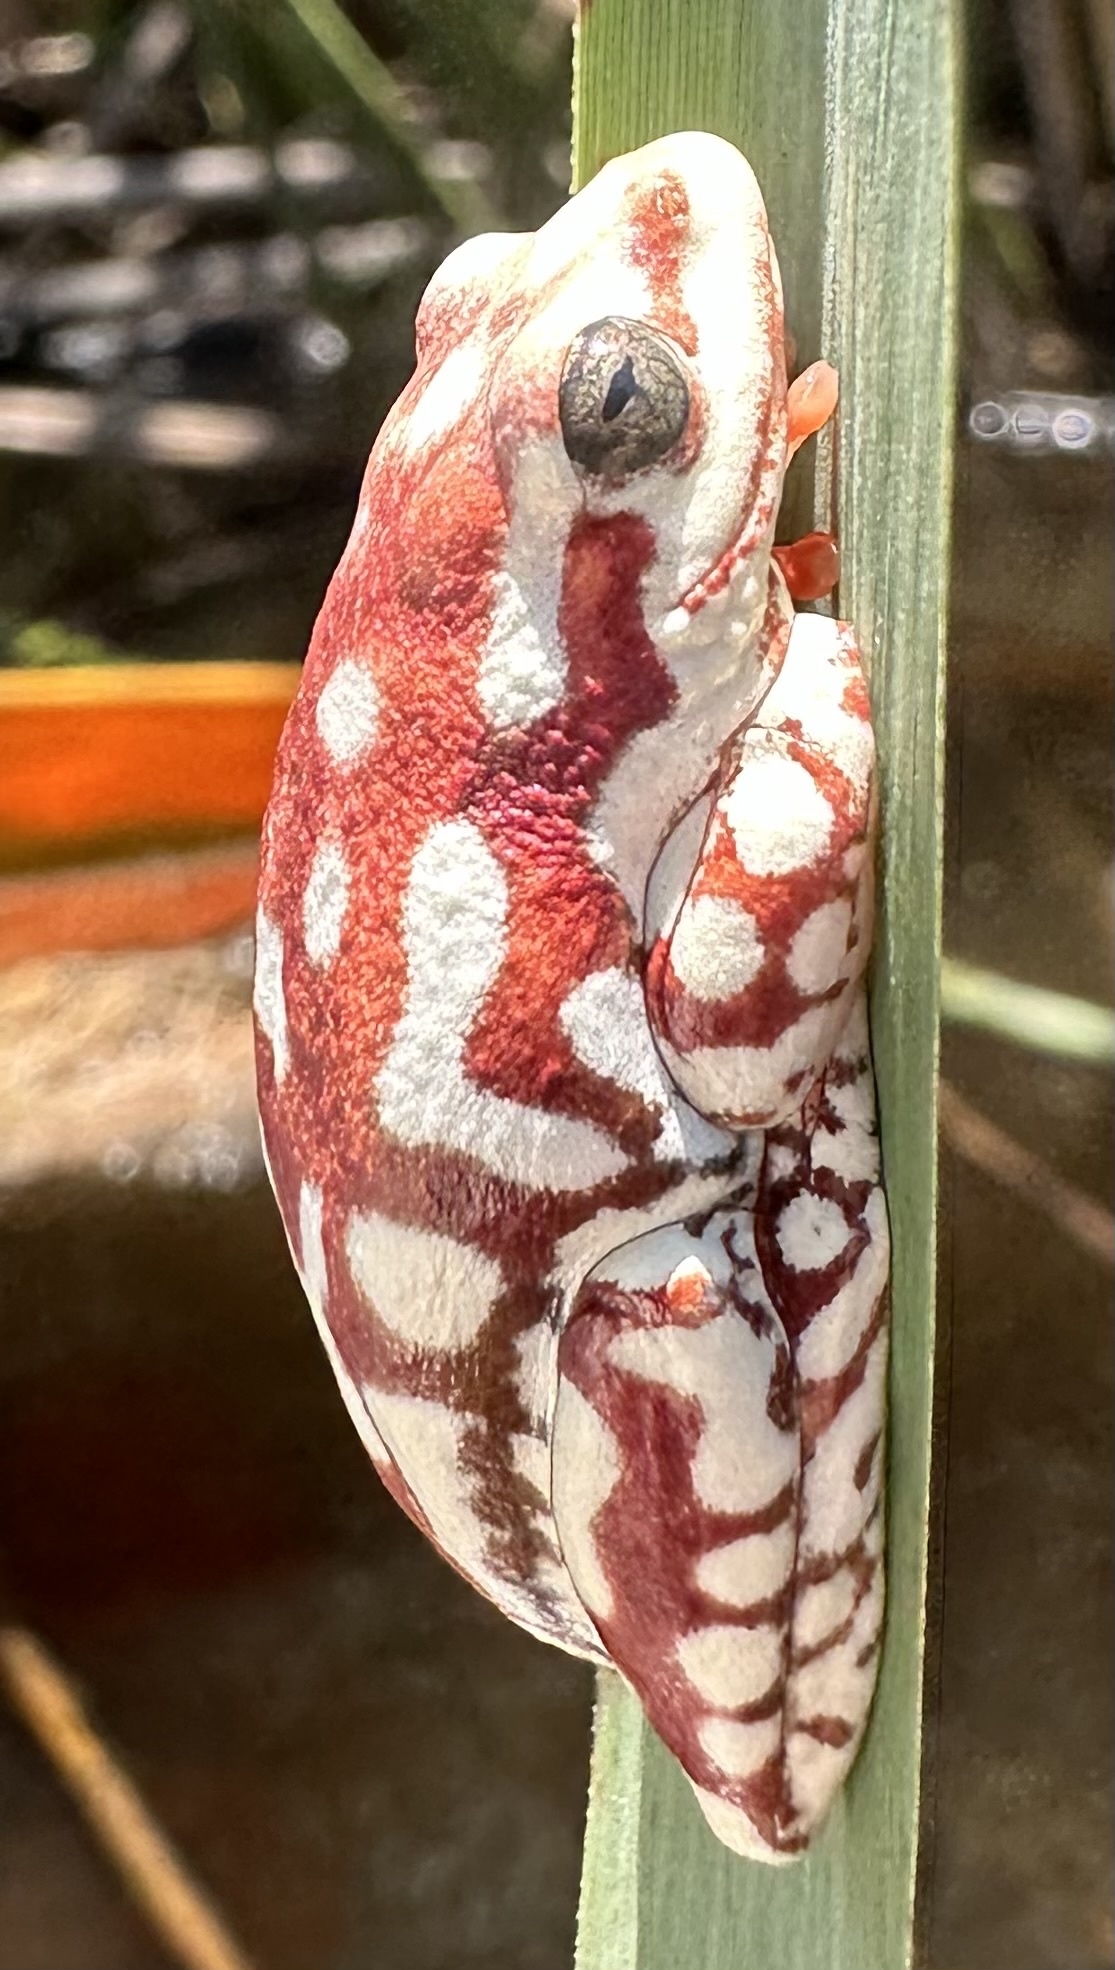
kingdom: Animalia
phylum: Chordata
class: Amphibia
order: Anura
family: Hyperoliidae
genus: Hyperolius
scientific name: Hyperolius parallelus
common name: Angolan reed frog
